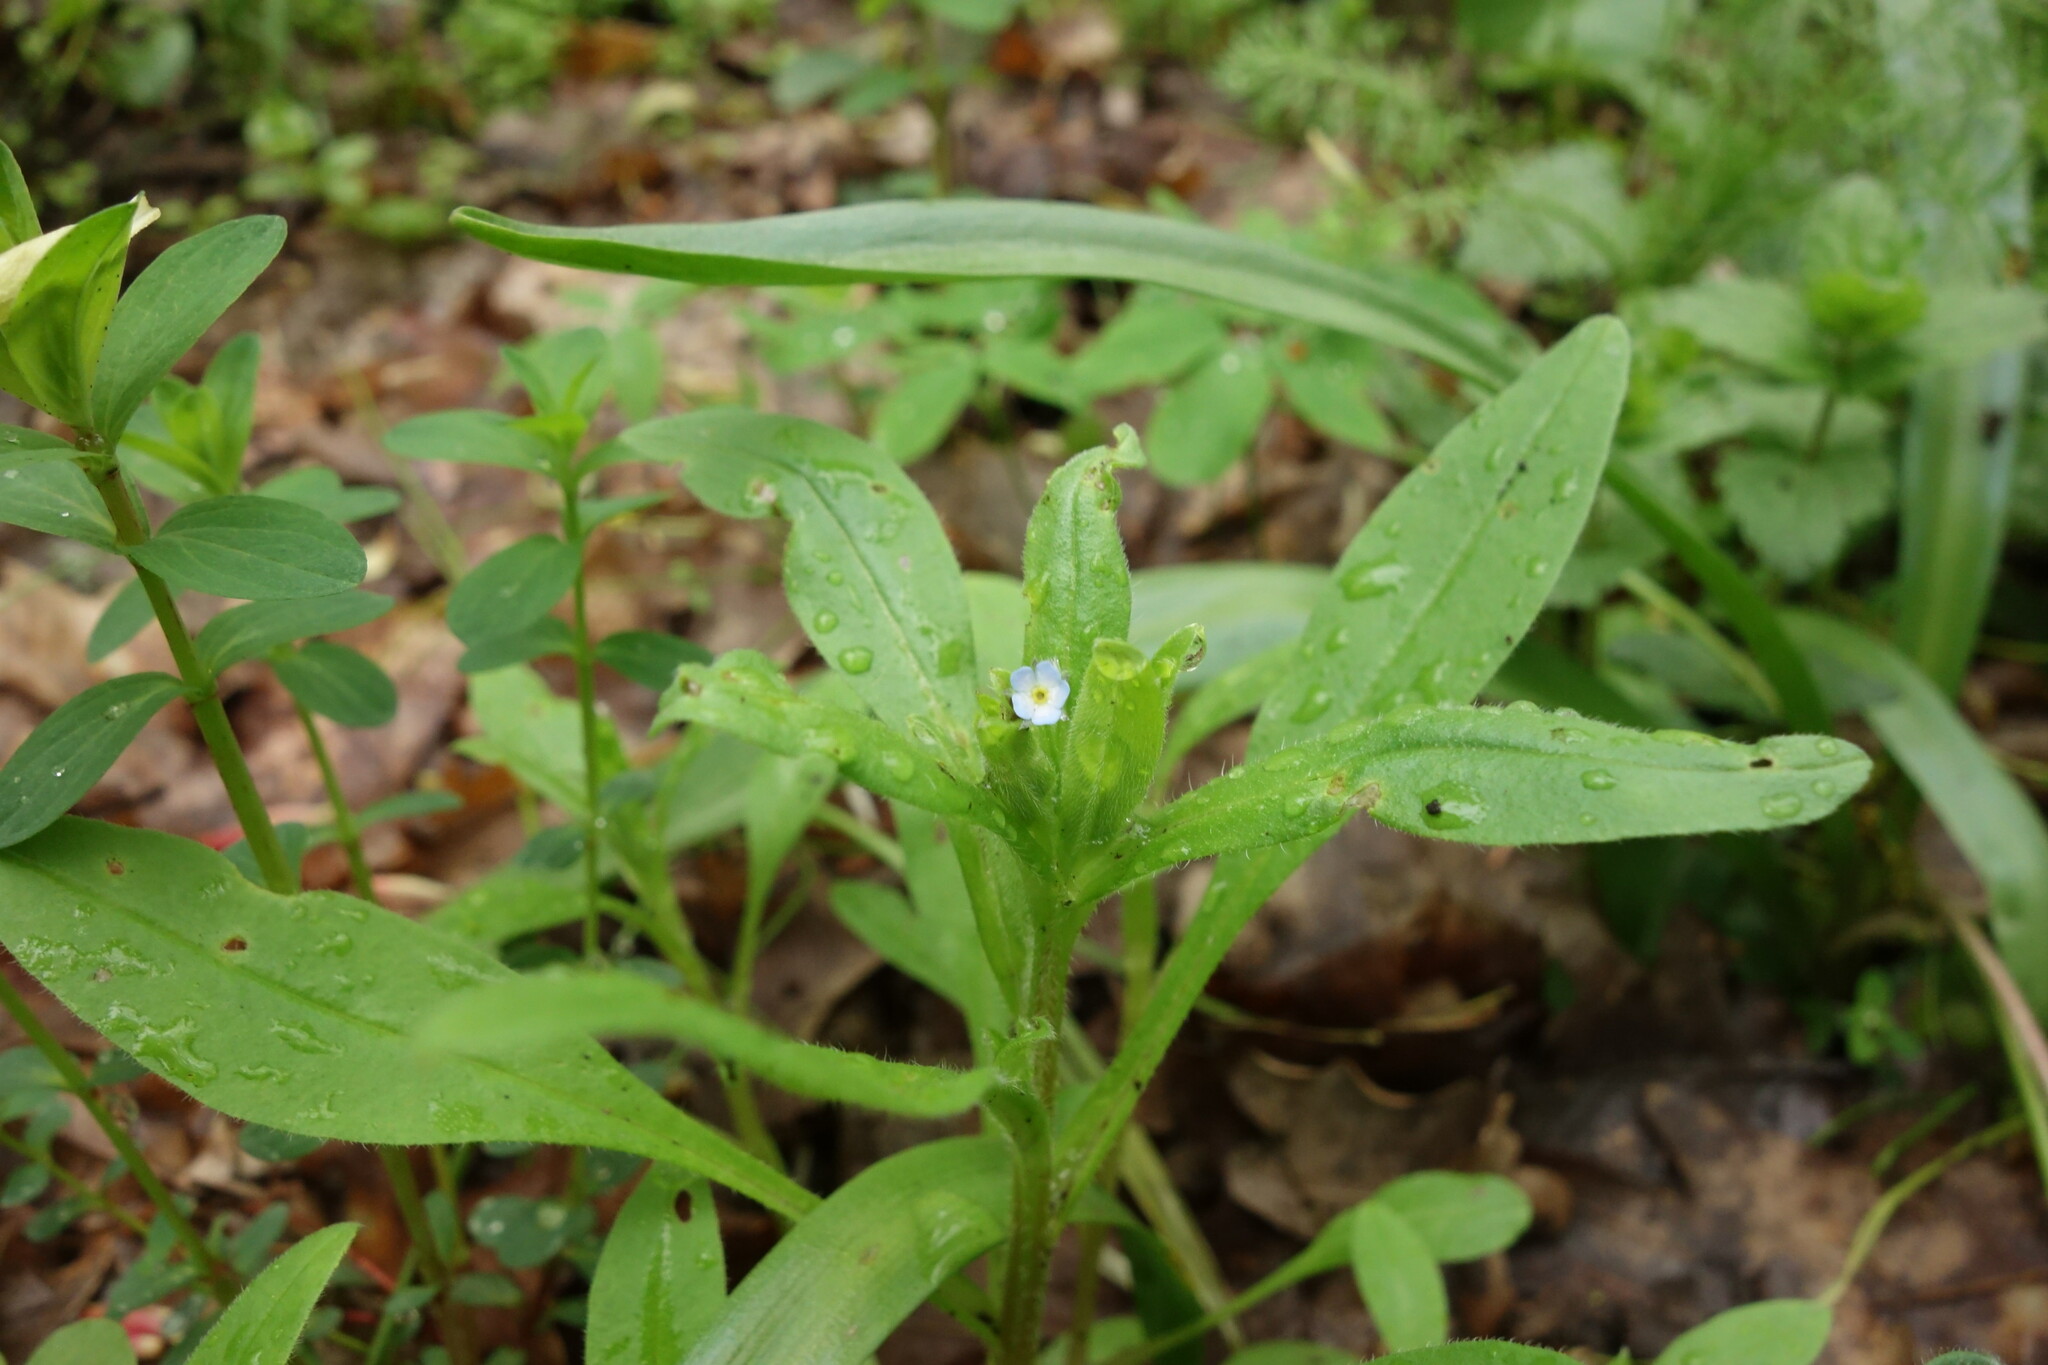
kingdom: Plantae
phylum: Tracheophyta
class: Magnoliopsida
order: Boraginales
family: Boraginaceae
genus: Myosotis
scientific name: Myosotis sparsiflora
